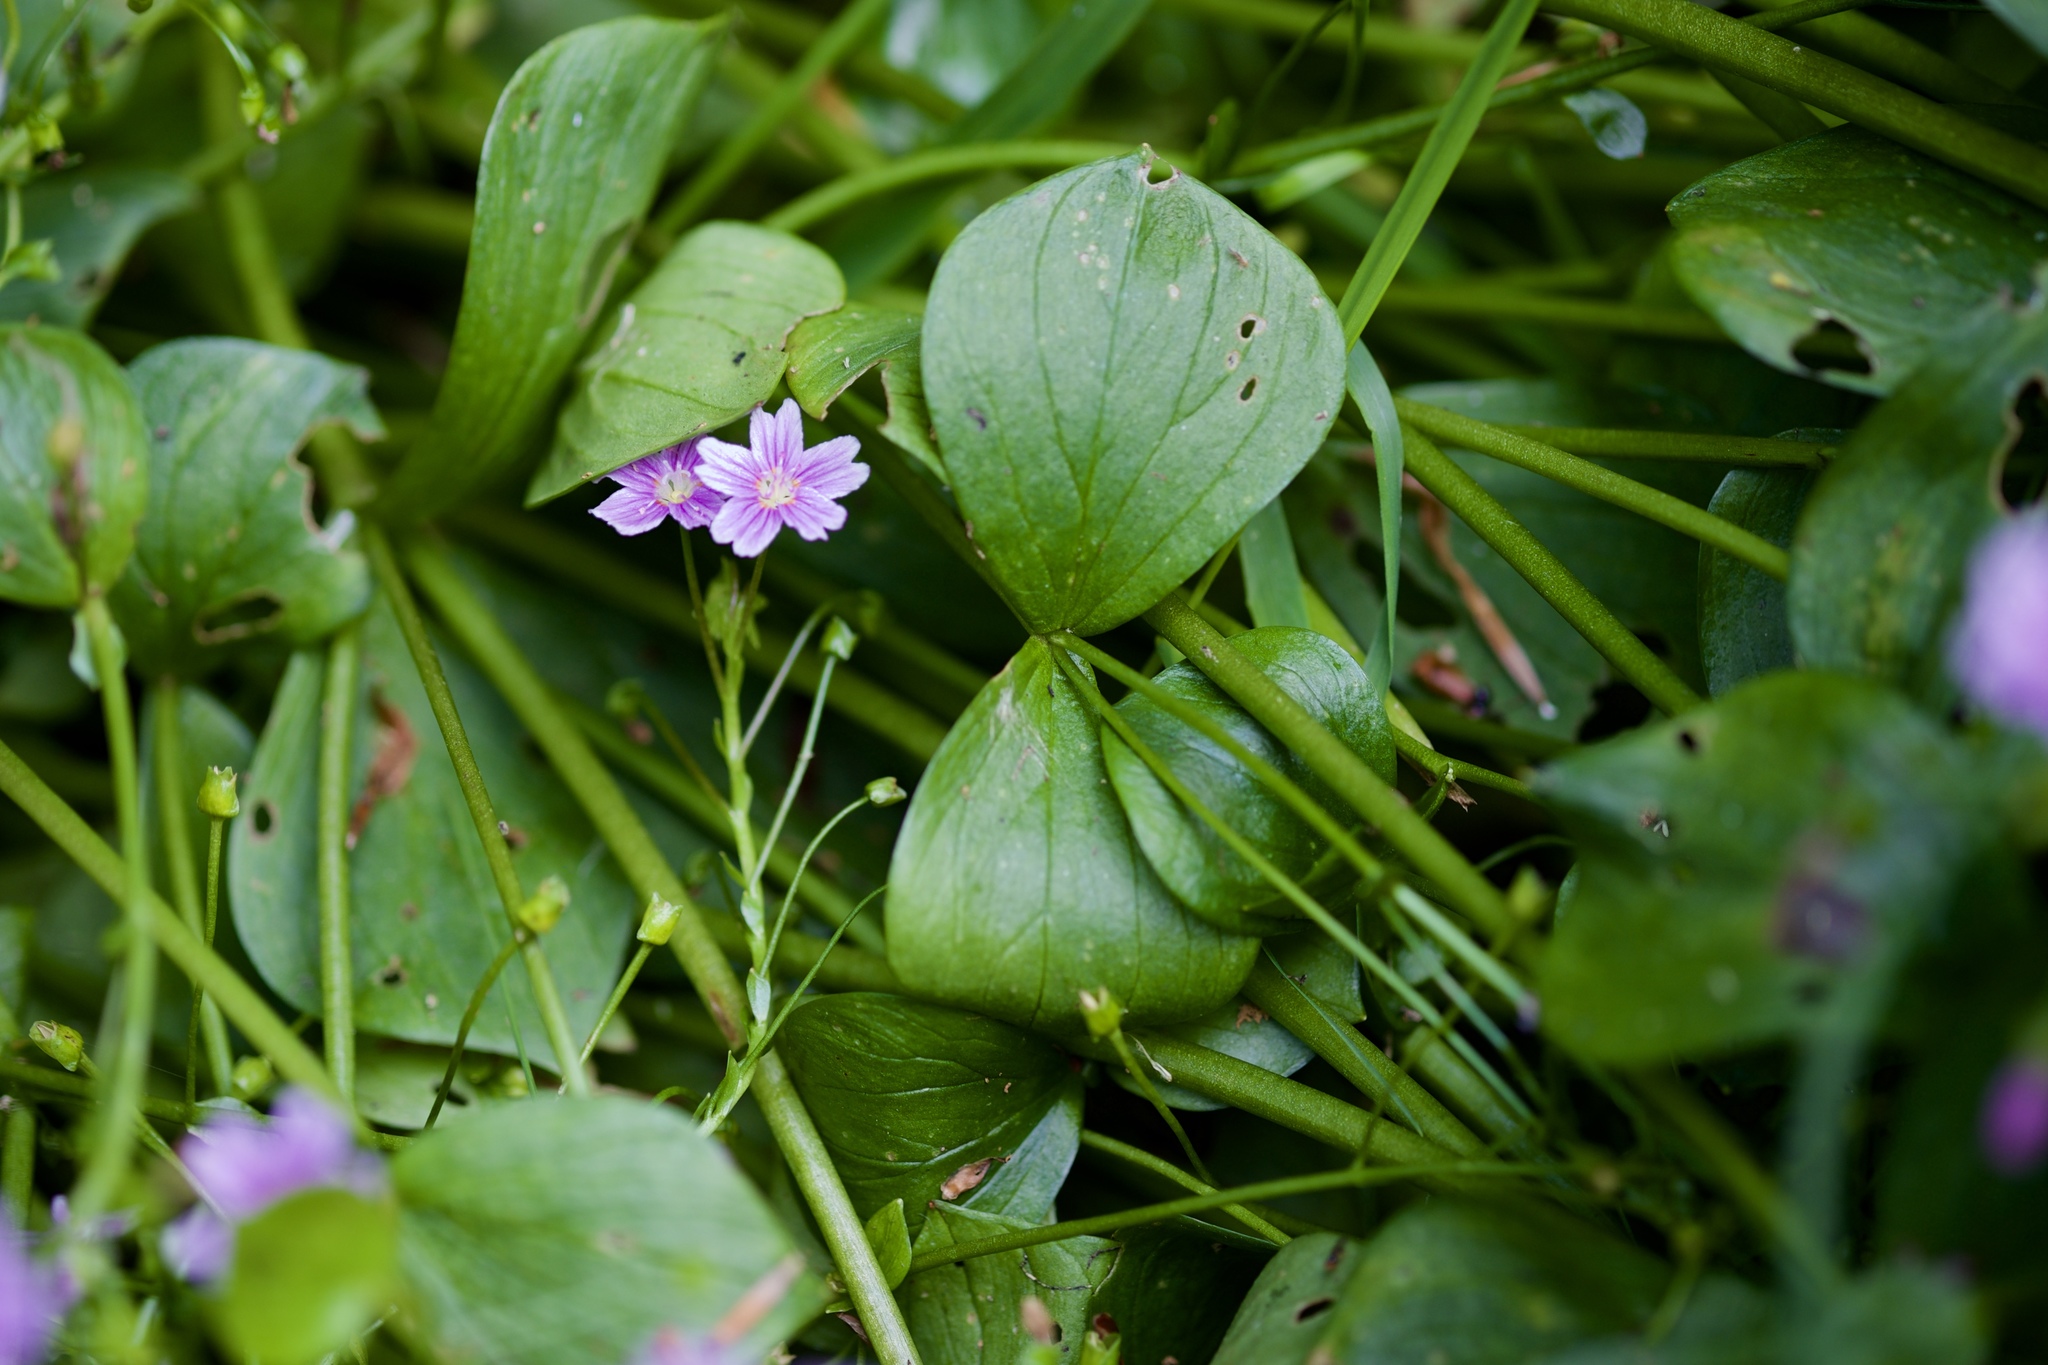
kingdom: Plantae
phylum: Tracheophyta
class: Magnoliopsida
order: Caryophyllales
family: Montiaceae
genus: Claytonia
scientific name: Claytonia sibirica
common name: Pink purslane
